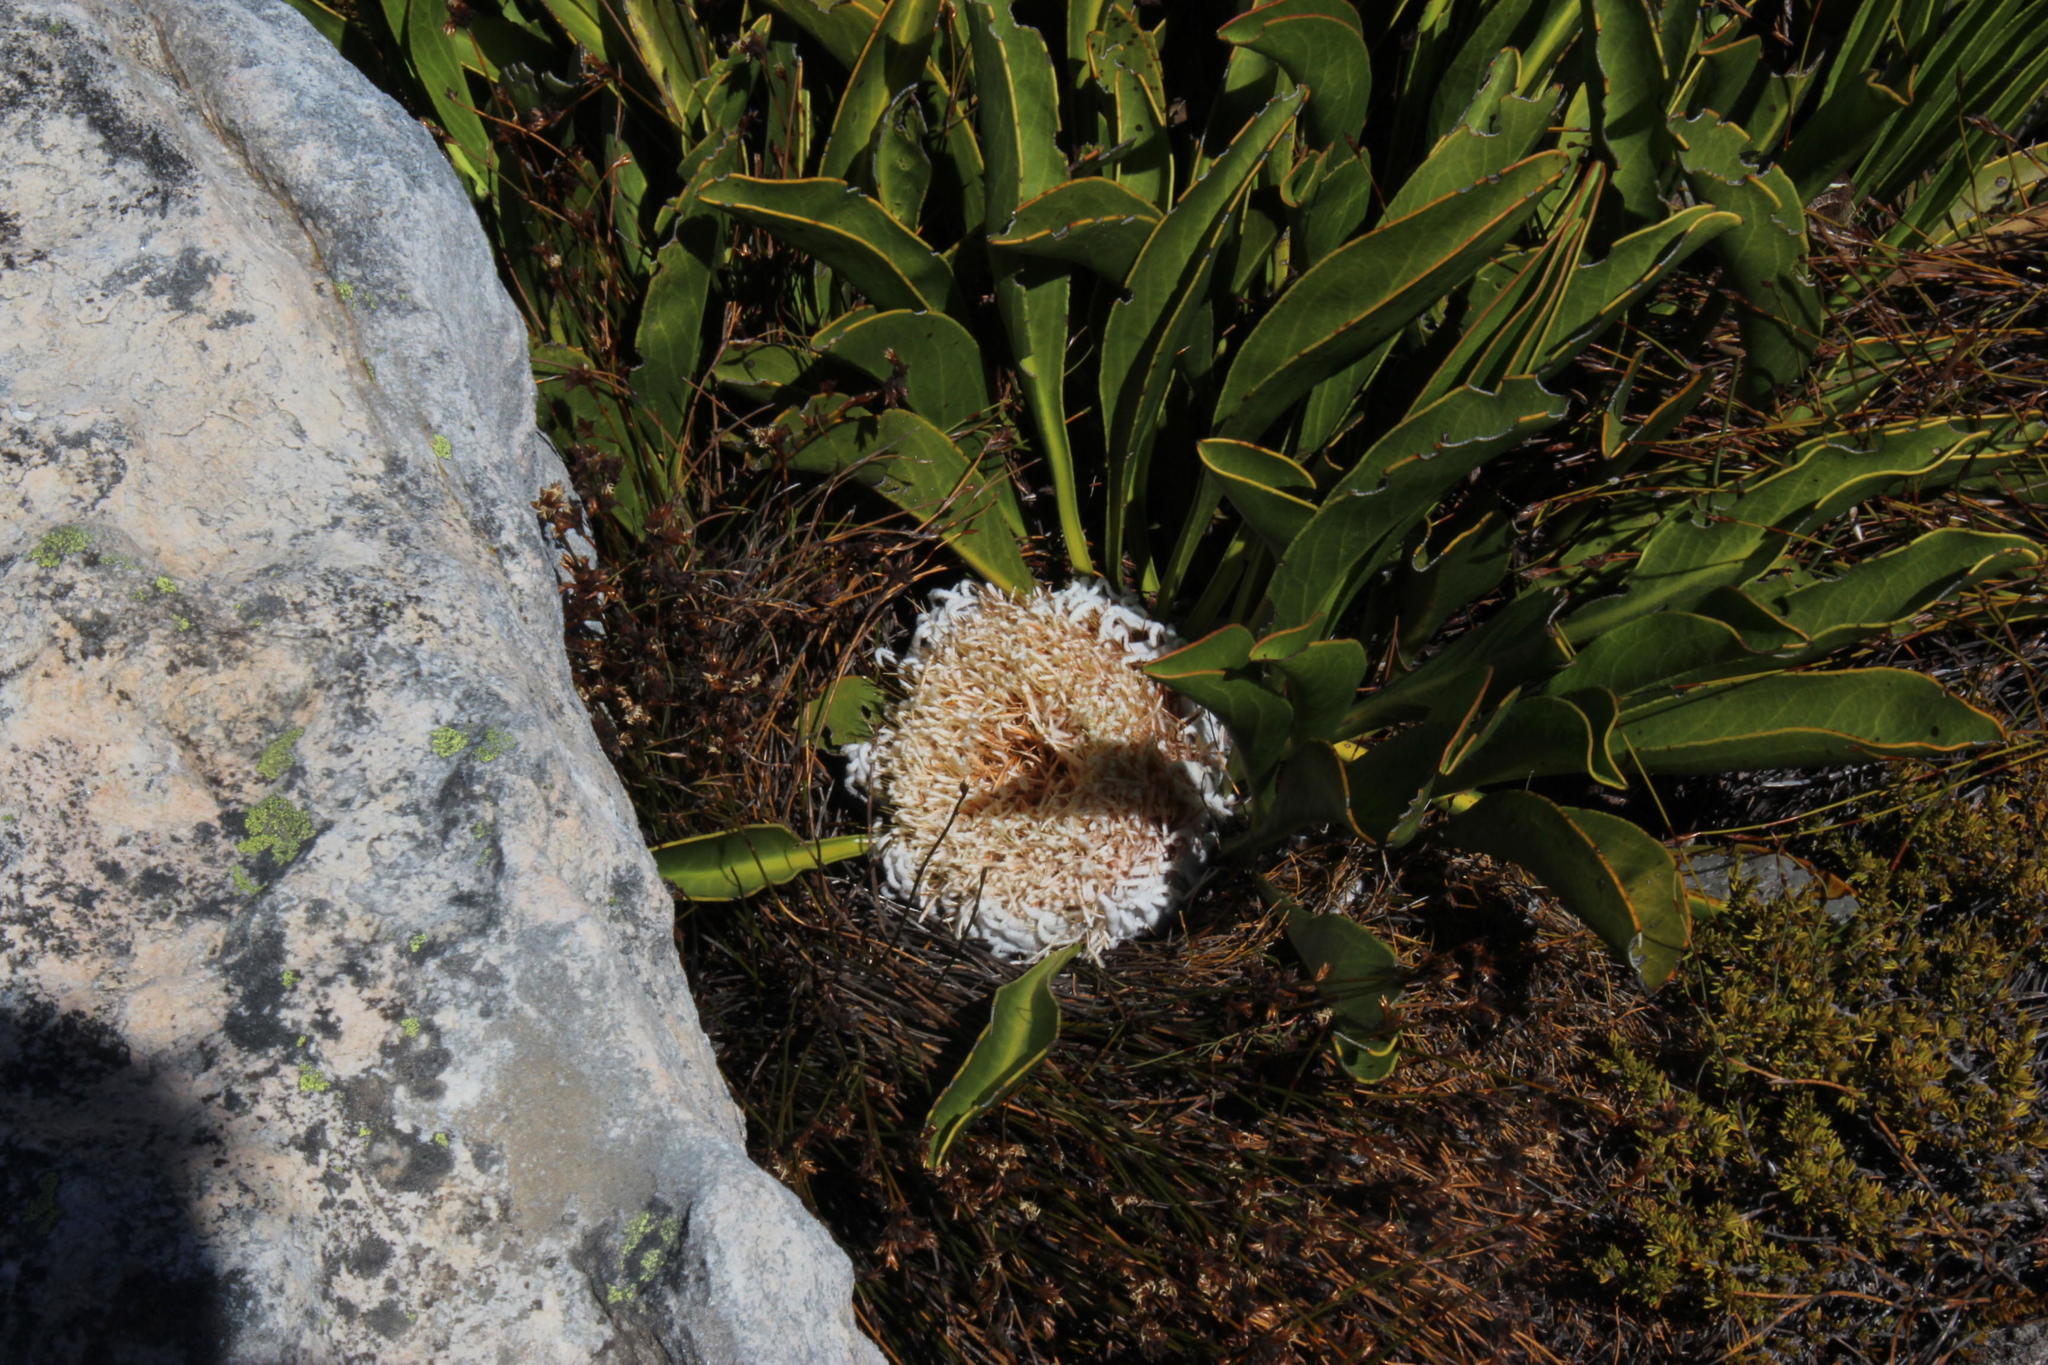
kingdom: Plantae
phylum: Tracheophyta
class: Magnoliopsida
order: Proteales
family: Proteaceae
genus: Protea
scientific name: Protea cryophila
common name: Snow protea
